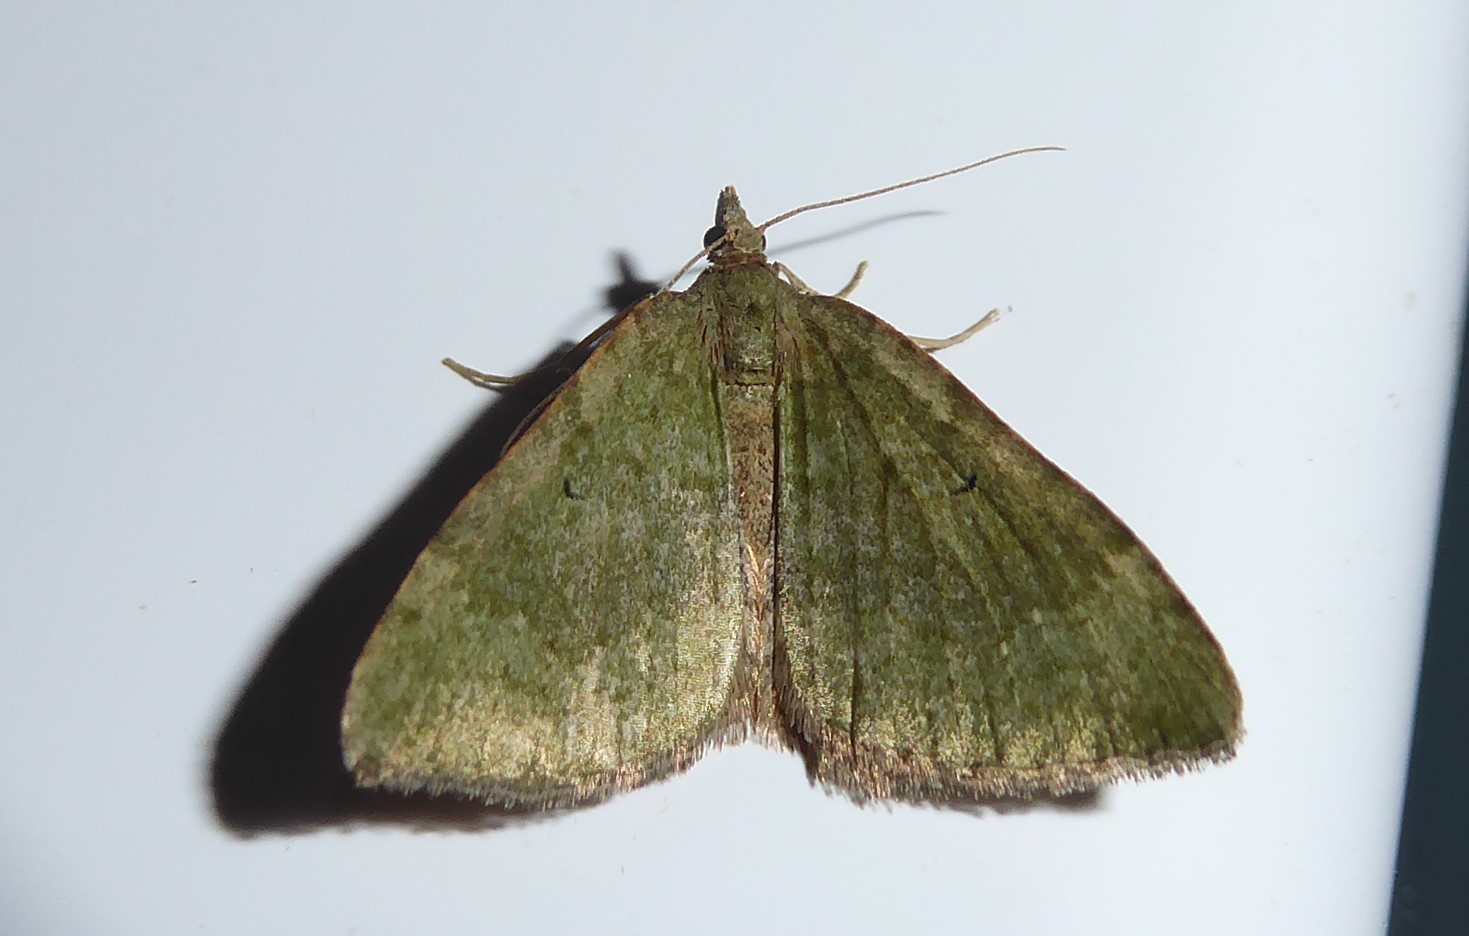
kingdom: Animalia
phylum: Arthropoda
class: Insecta
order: Lepidoptera
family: Geometridae
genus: Epyaxa
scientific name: Epyaxa rosearia
